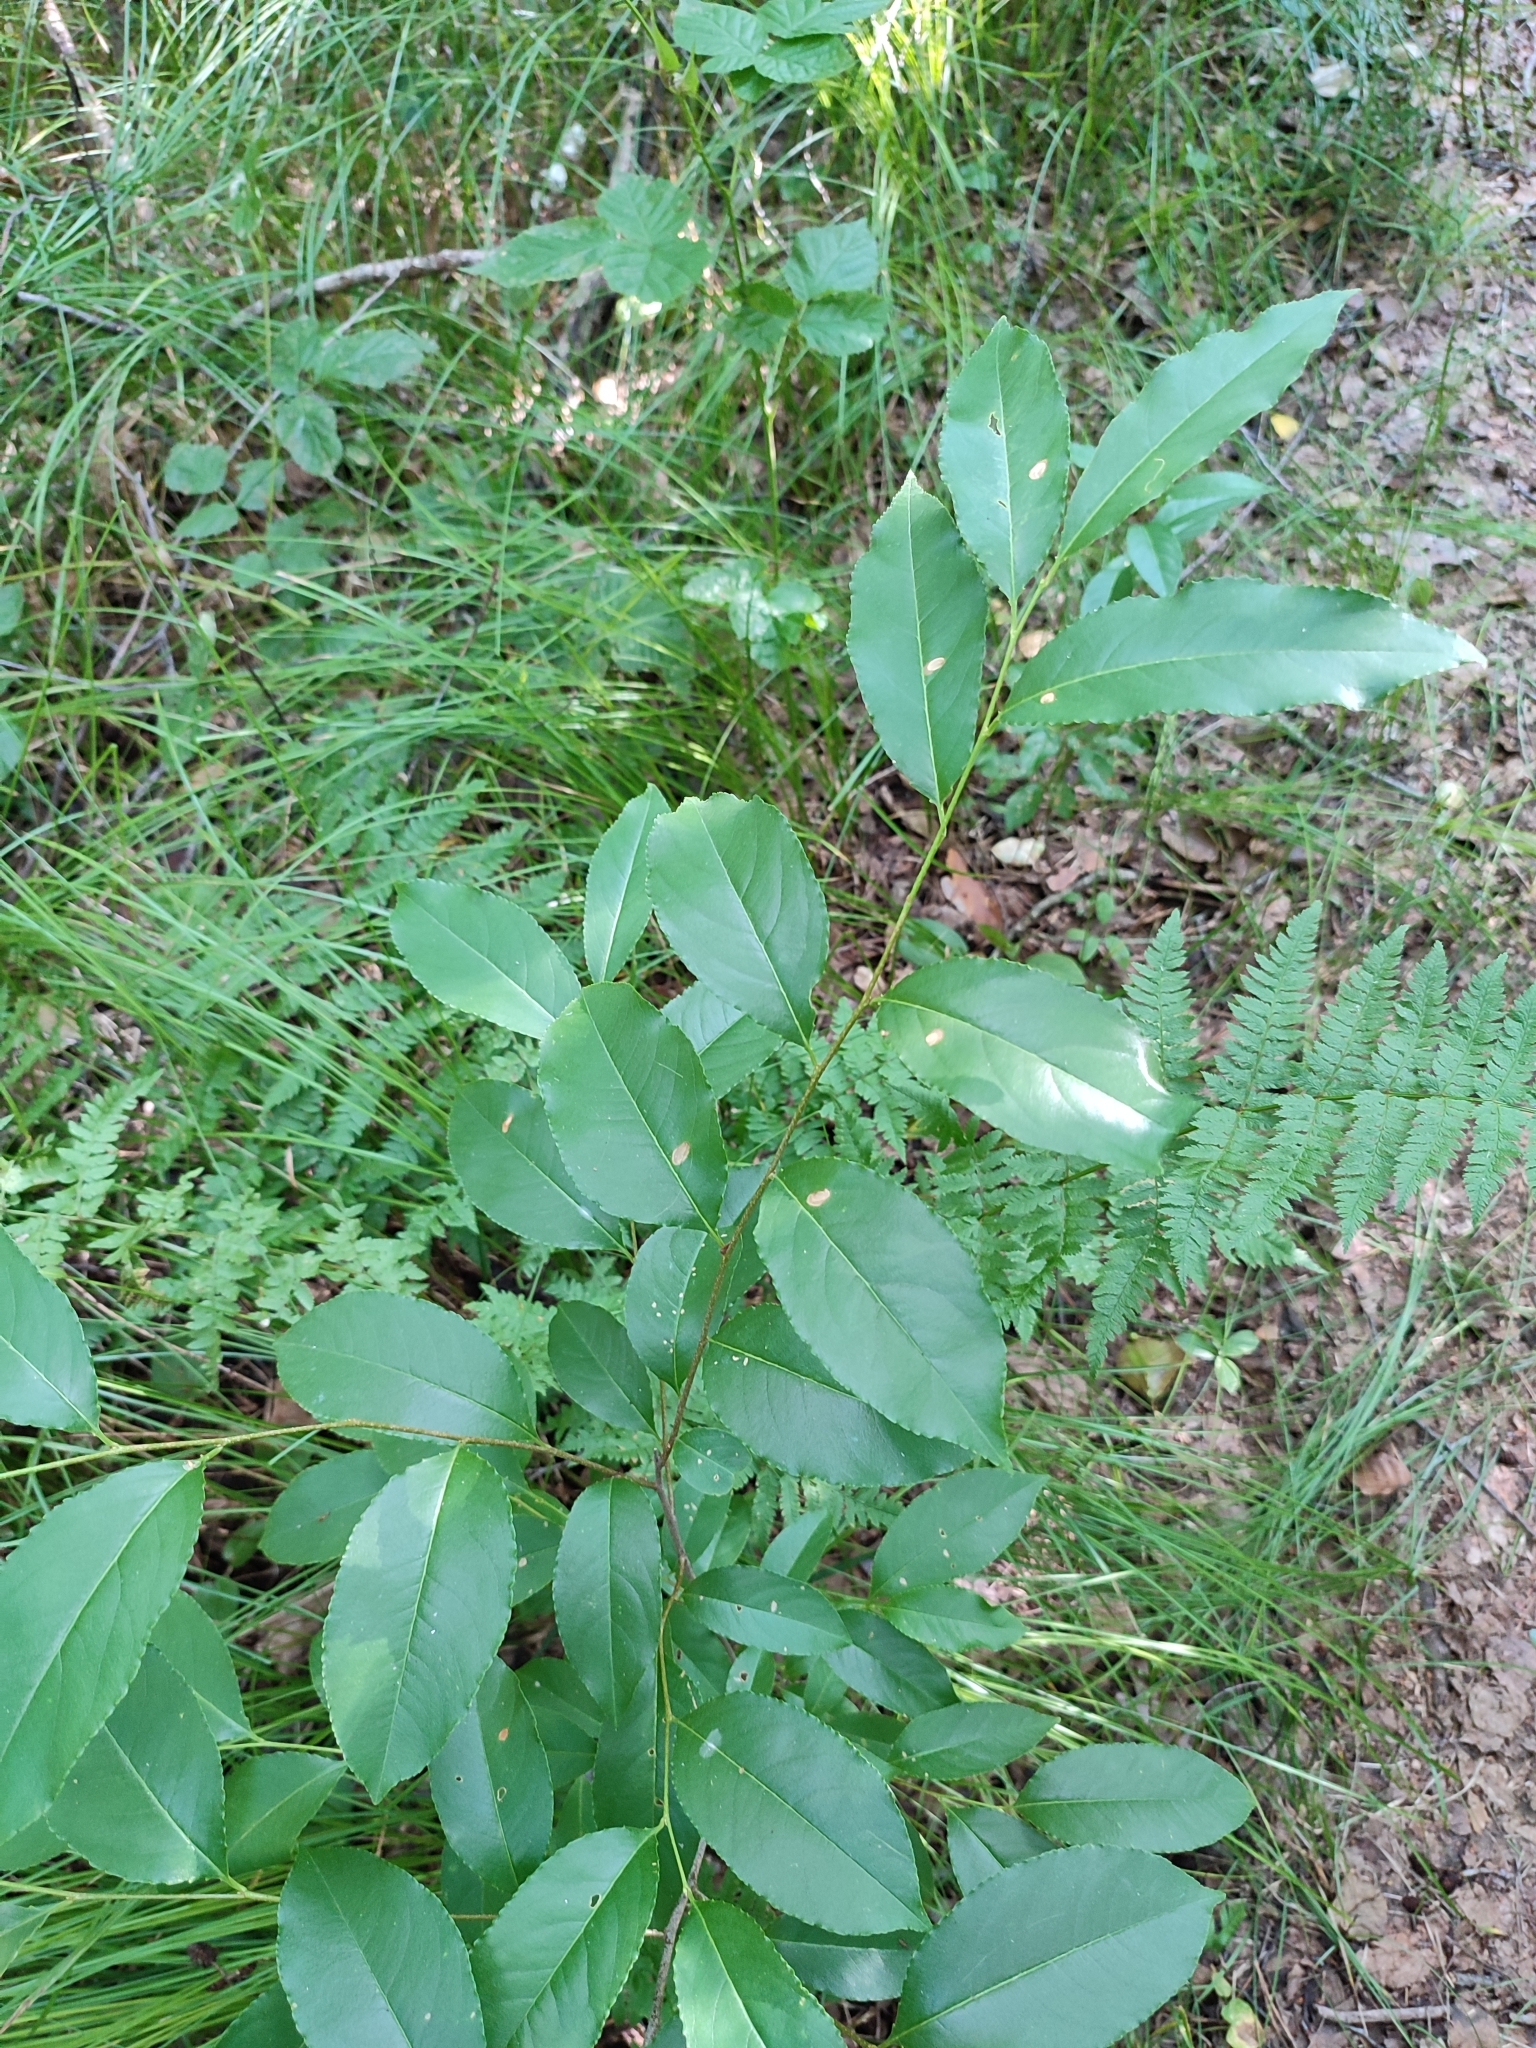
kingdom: Plantae
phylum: Tracheophyta
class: Magnoliopsida
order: Rosales
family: Rosaceae
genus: Prunus
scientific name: Prunus serotina
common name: Black cherry
